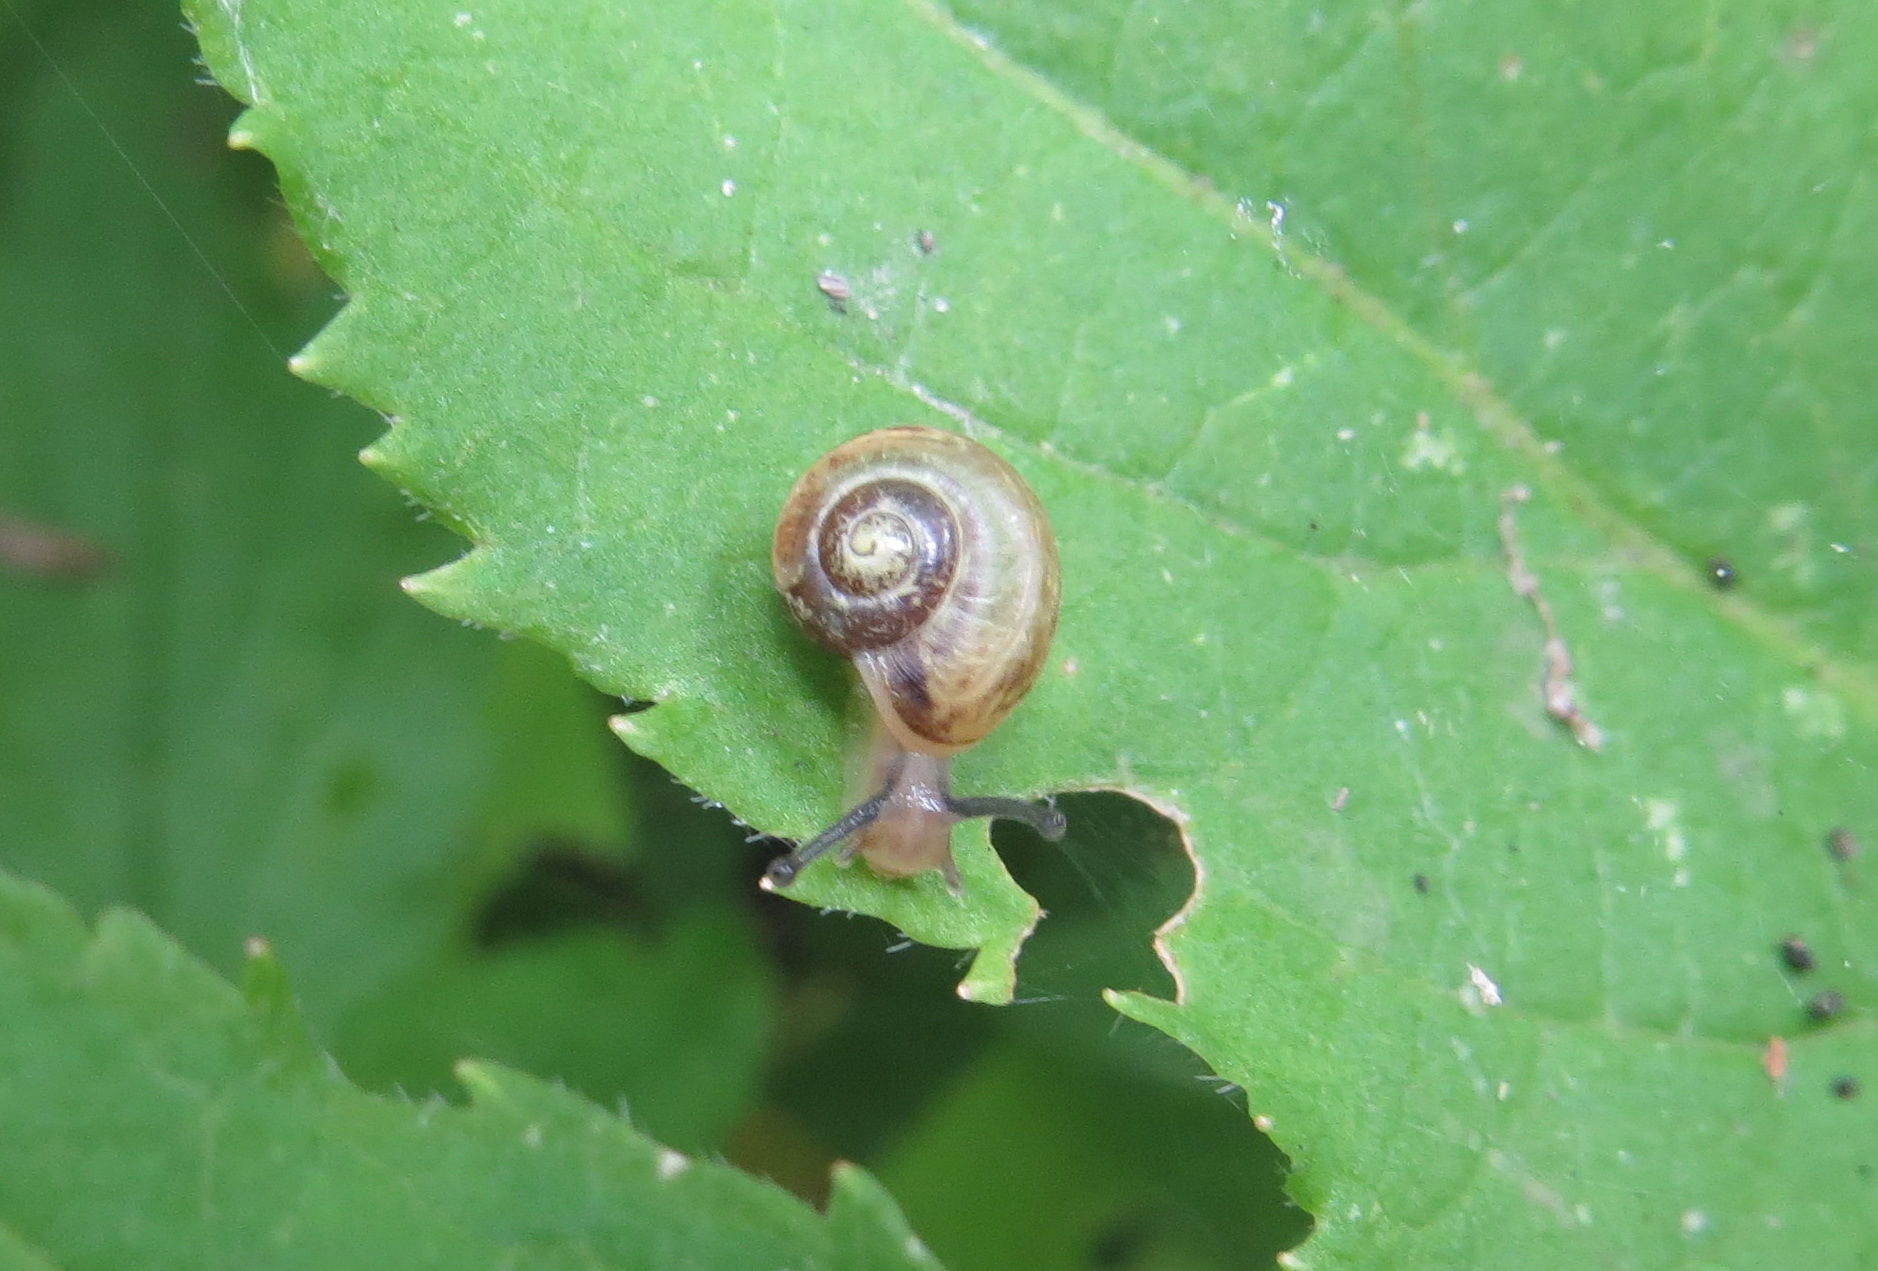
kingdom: Animalia
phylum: Mollusca
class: Gastropoda
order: Stylommatophora
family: Camaenidae
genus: Fruticicola
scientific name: Fruticicola fruticum
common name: Bush snail
